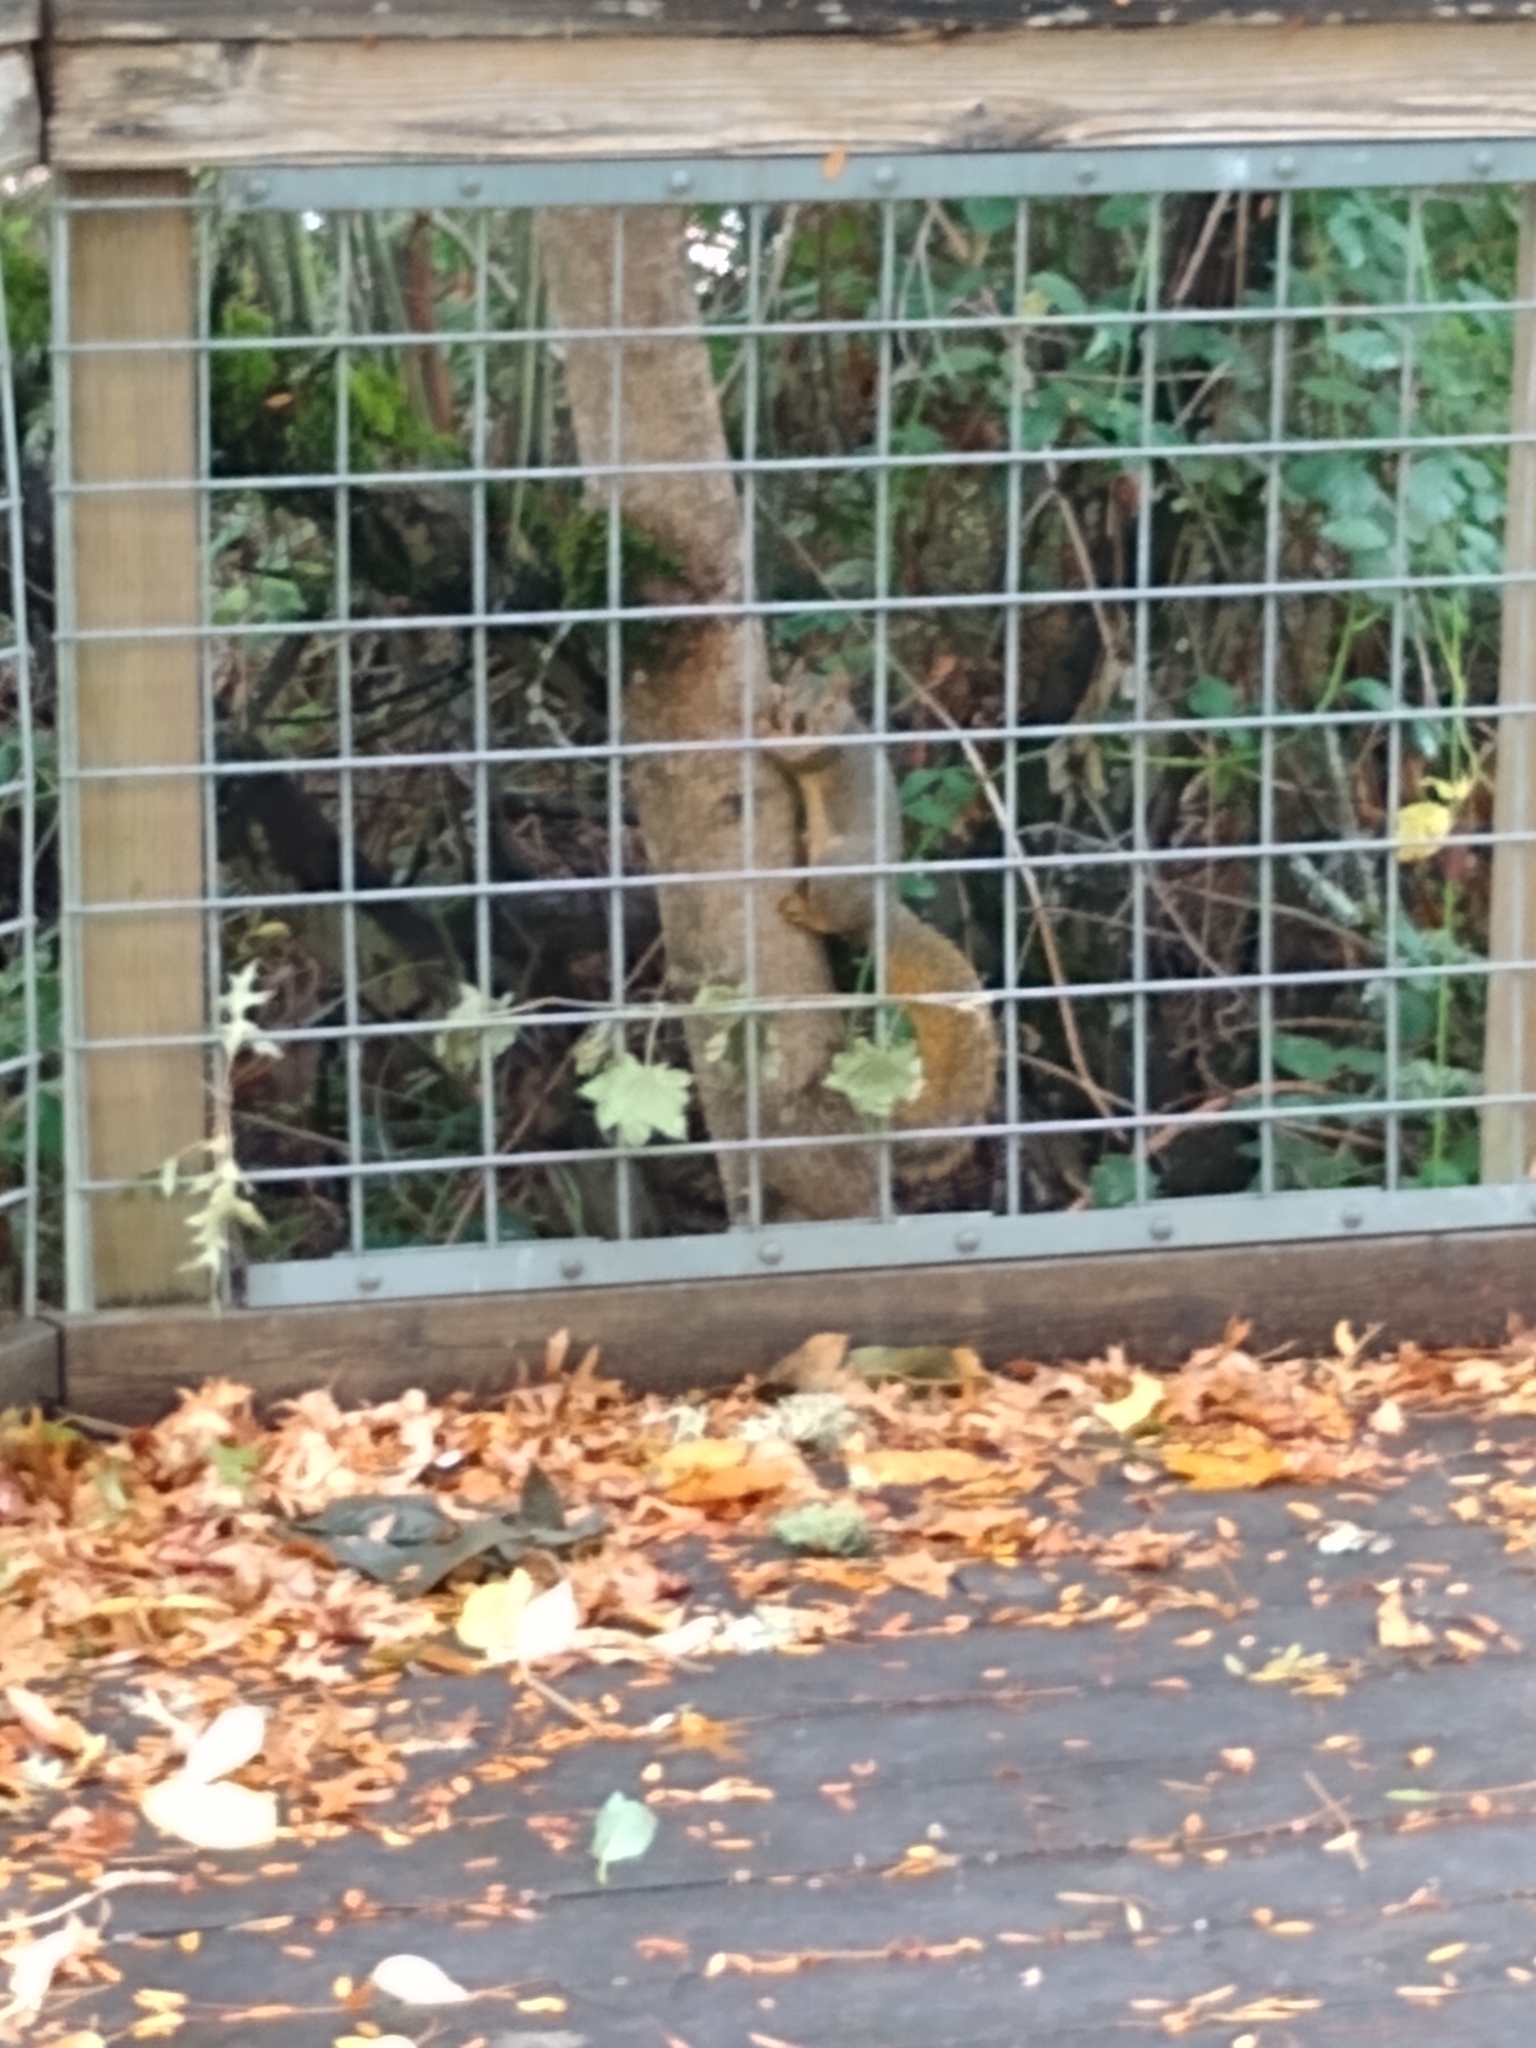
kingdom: Animalia
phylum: Chordata
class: Mammalia
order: Rodentia
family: Sciuridae
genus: Sciurus
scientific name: Sciurus niger
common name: Fox squirrel
